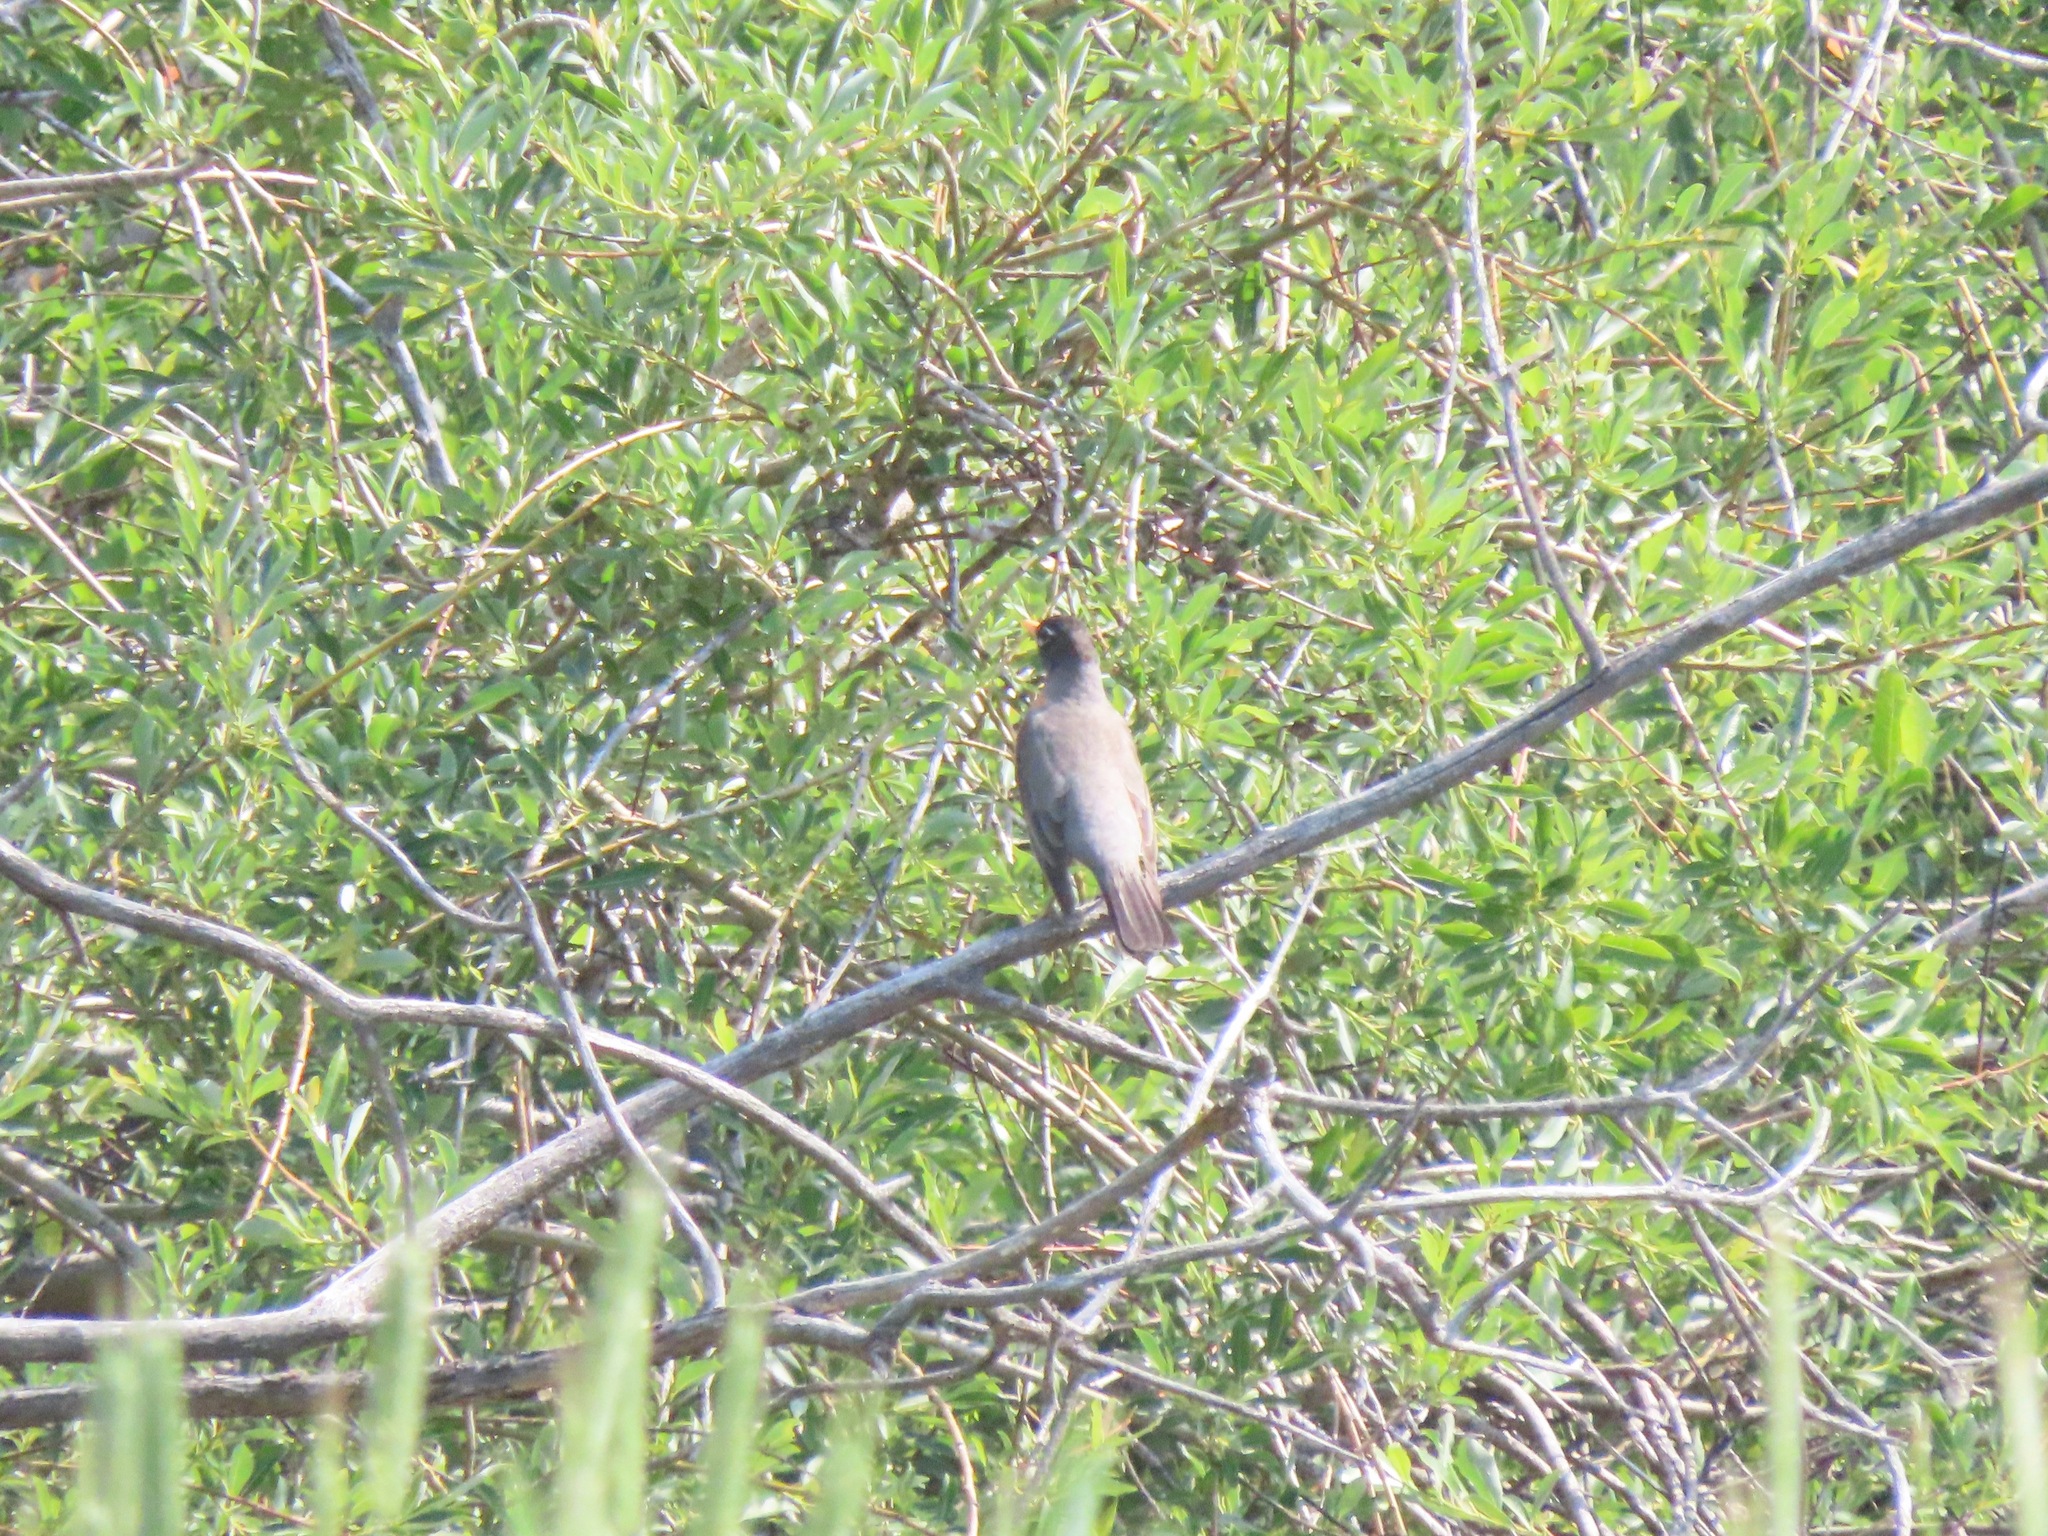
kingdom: Animalia
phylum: Chordata
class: Aves
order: Passeriformes
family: Turdidae
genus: Turdus
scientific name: Turdus migratorius
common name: American robin
